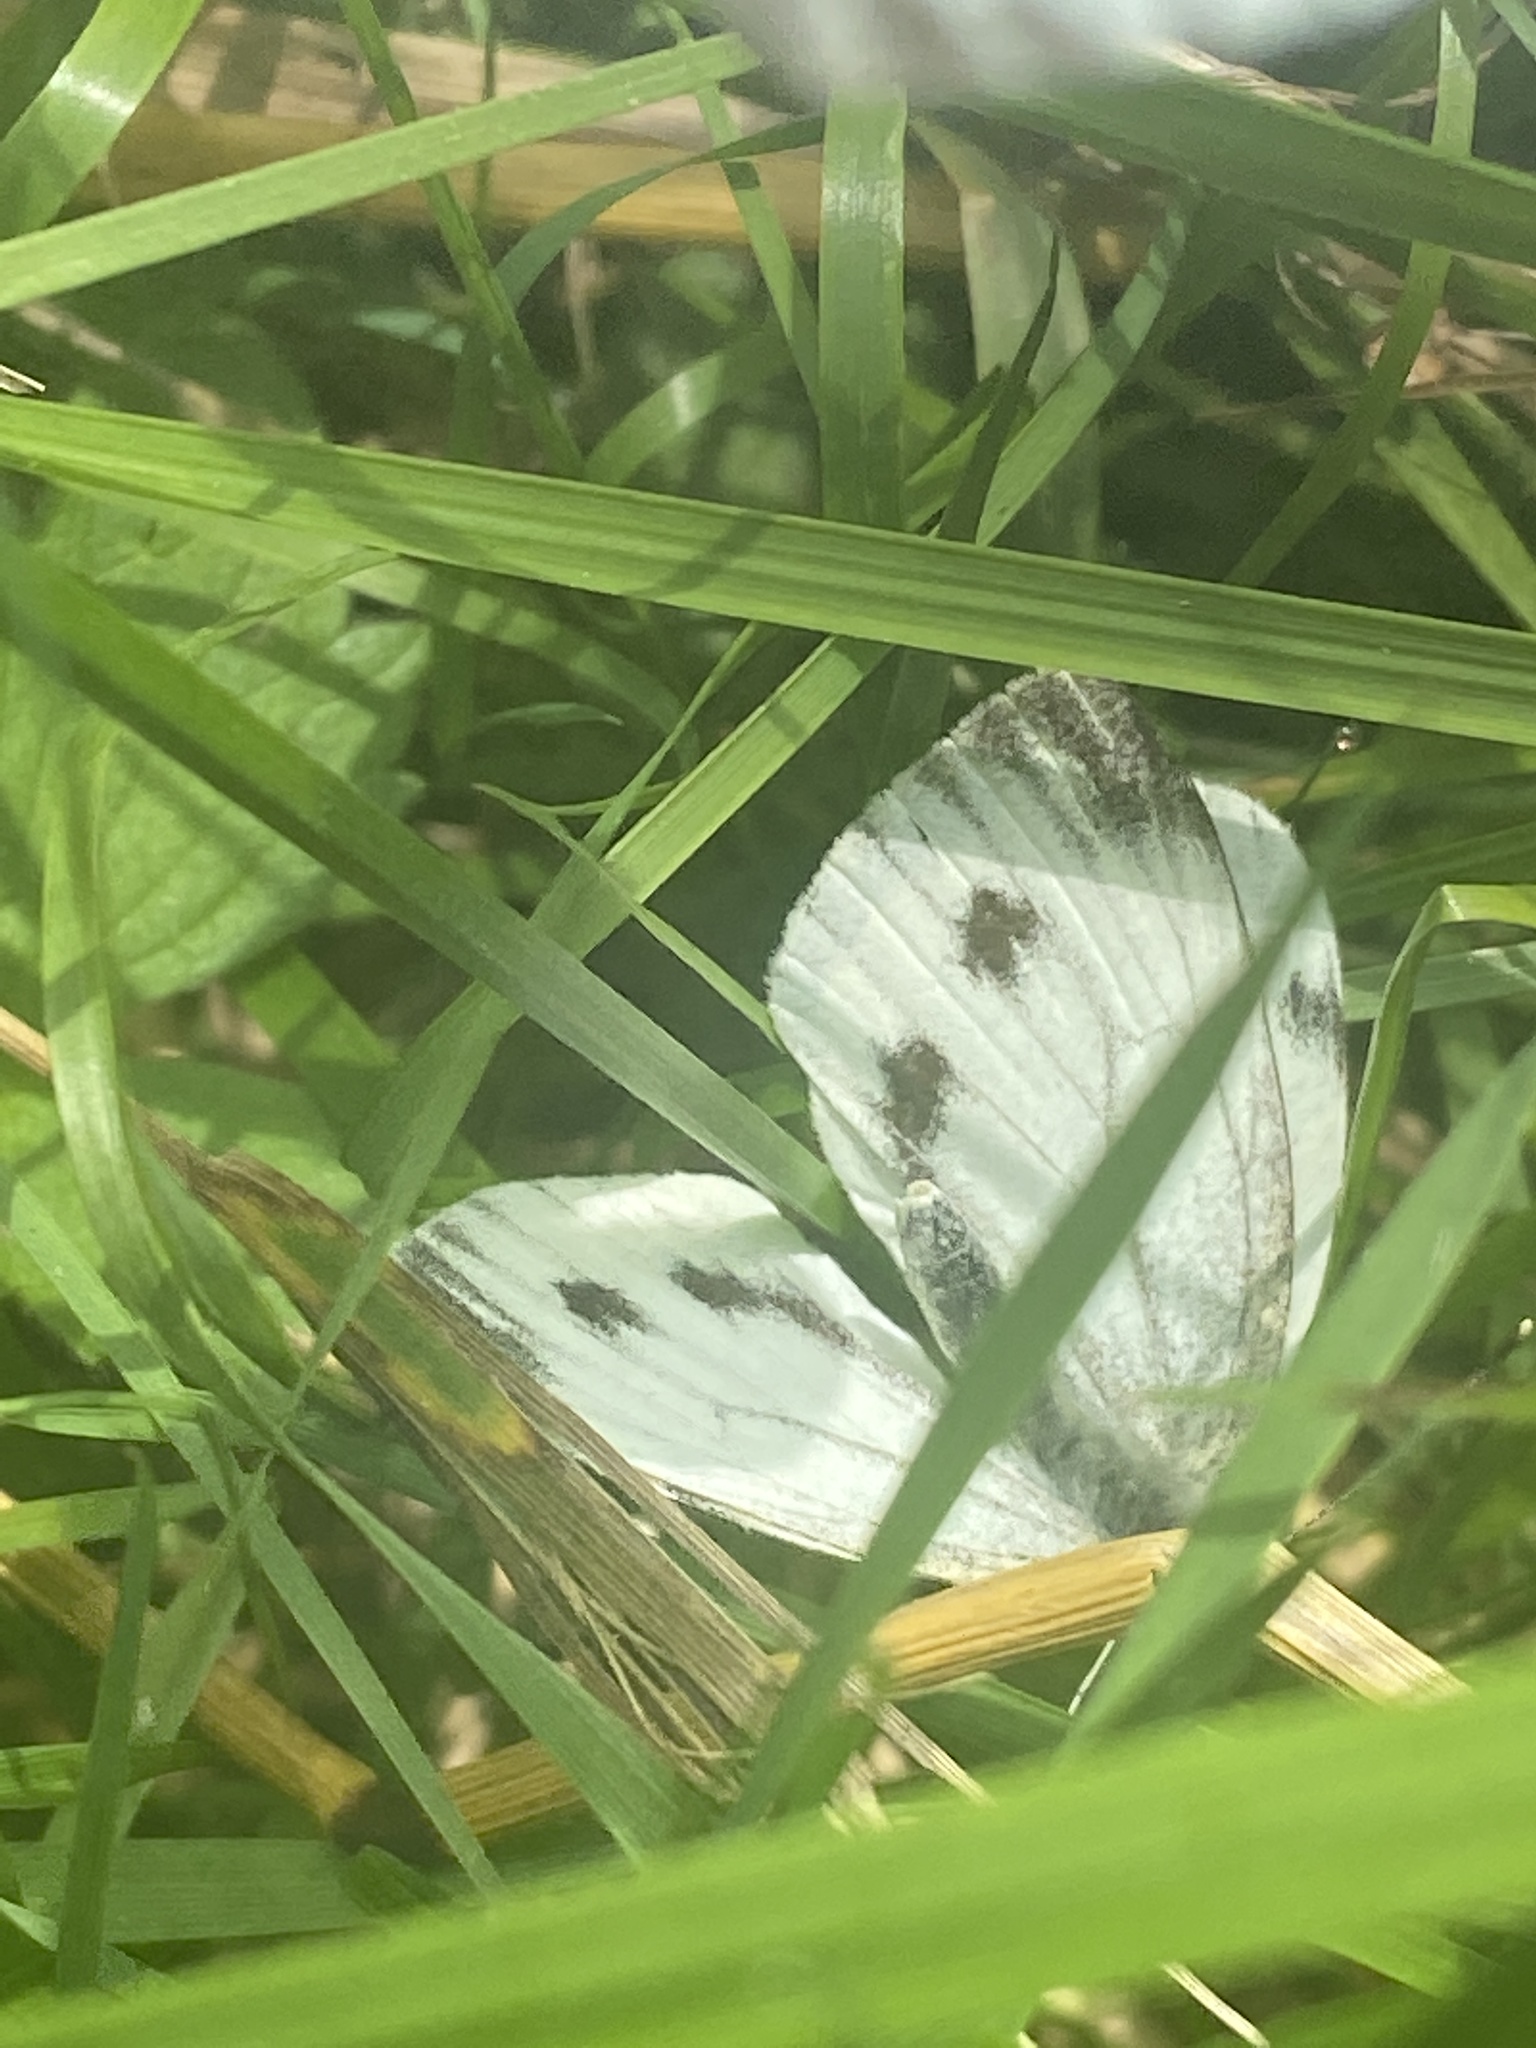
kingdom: Animalia
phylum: Arthropoda
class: Insecta
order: Lepidoptera
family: Pieridae
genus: Pieris
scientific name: Pieris napi
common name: Green-veined white
